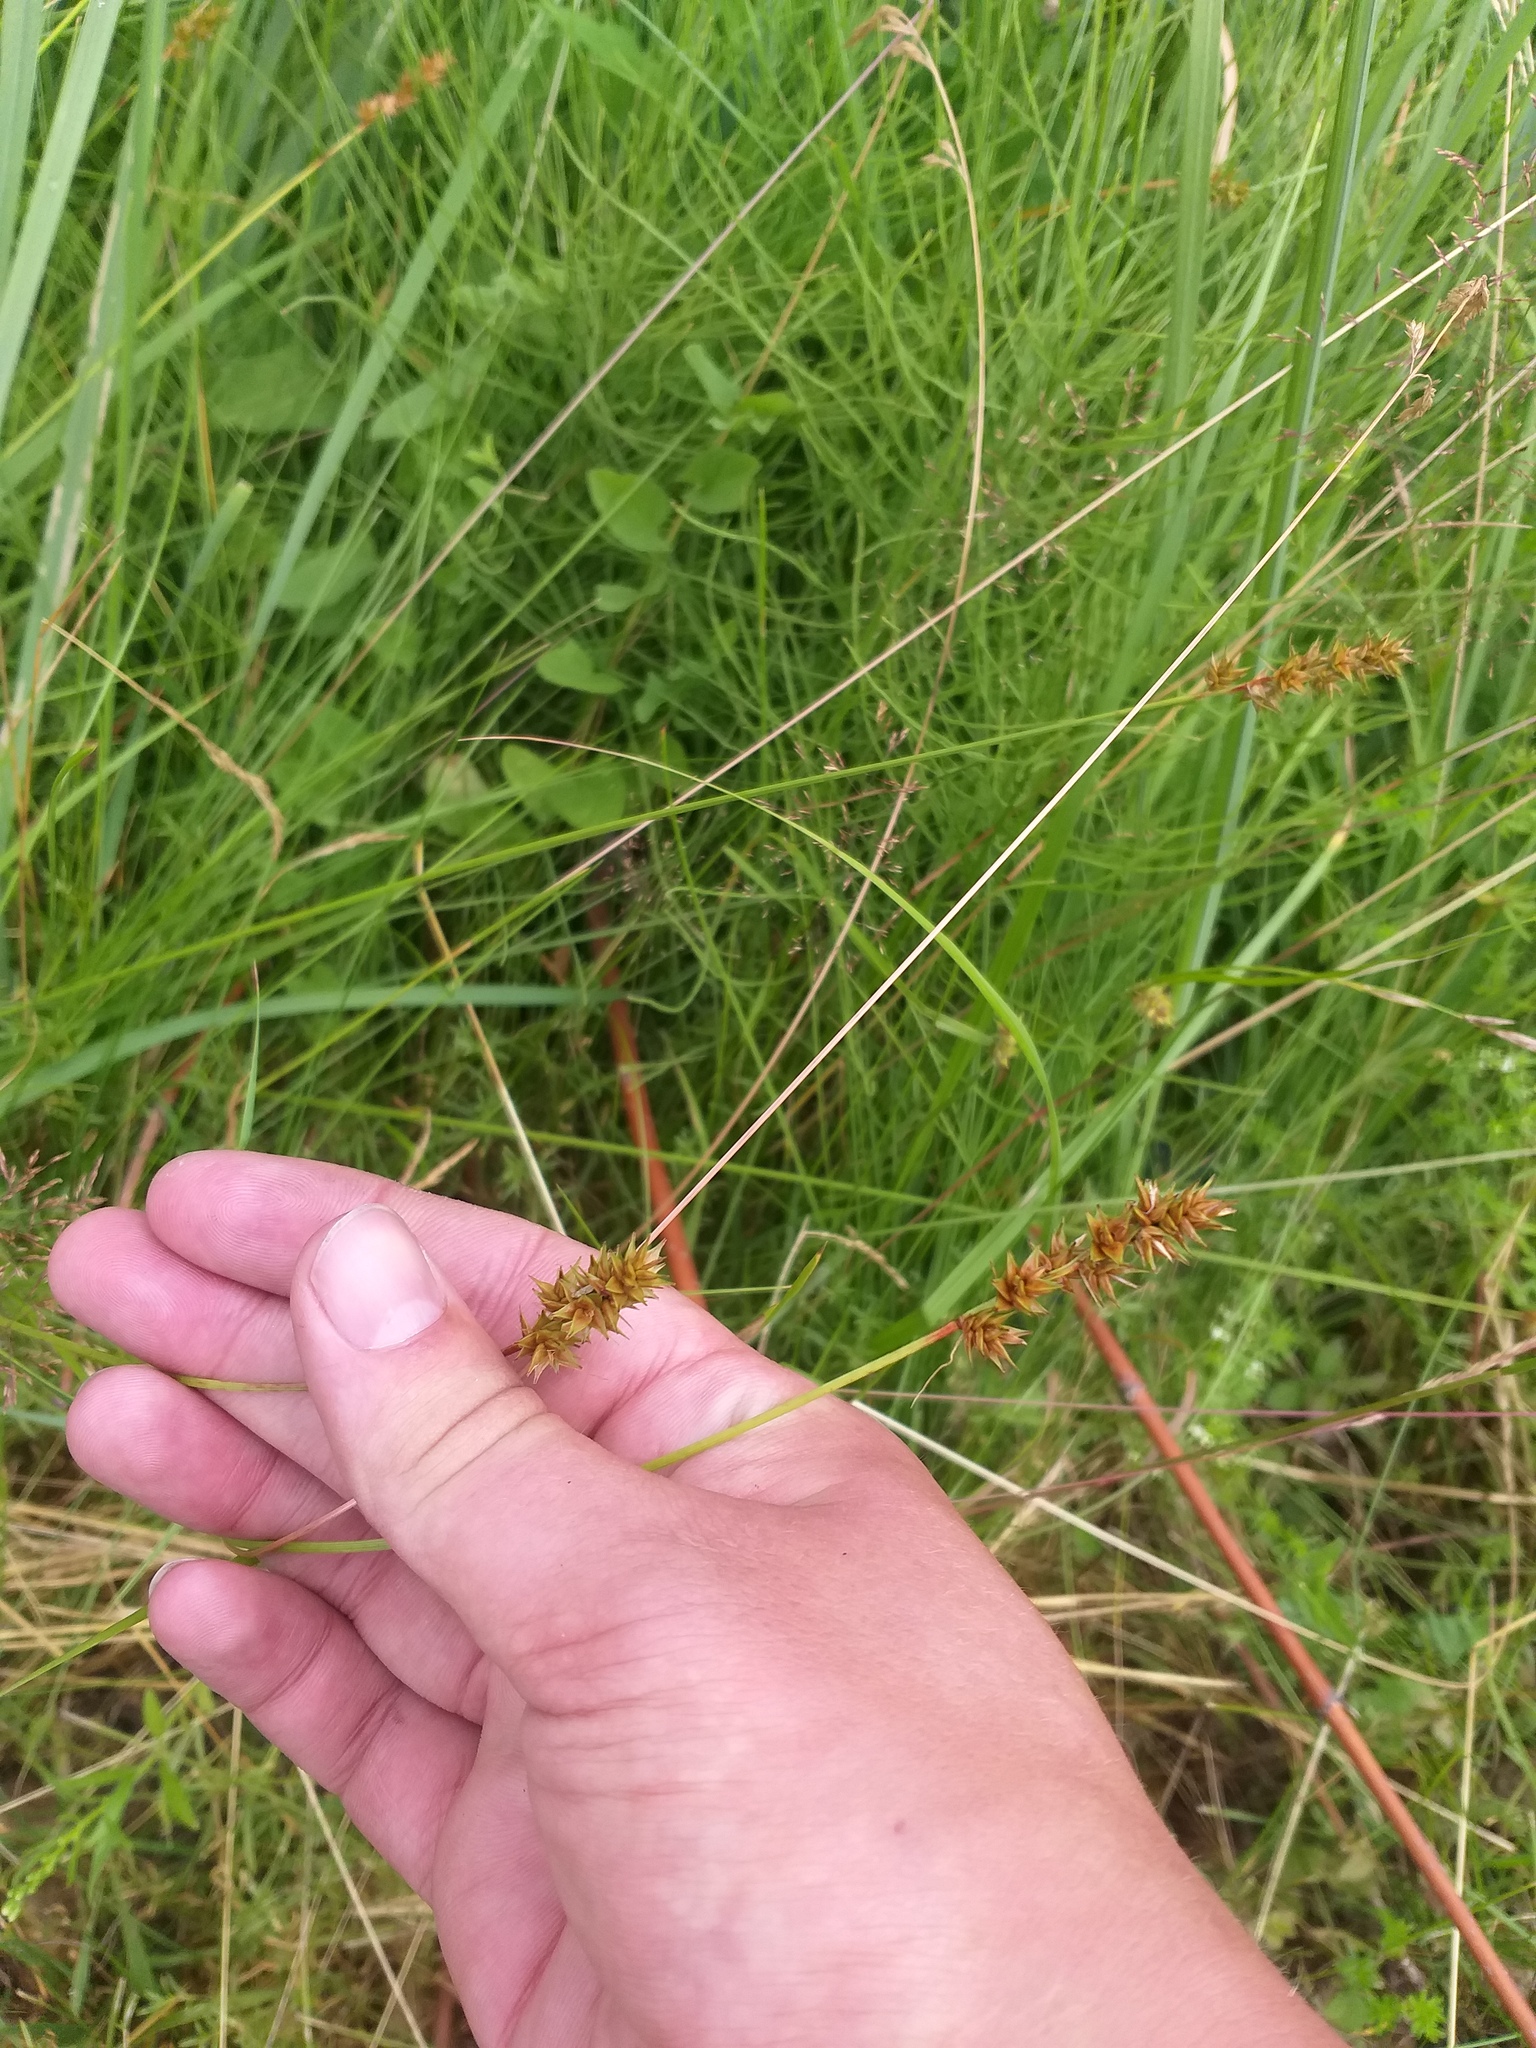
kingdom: Plantae
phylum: Tracheophyta
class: Liliopsida
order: Poales
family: Cyperaceae
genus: Carex
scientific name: Carex spicata
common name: Spiked sedge
